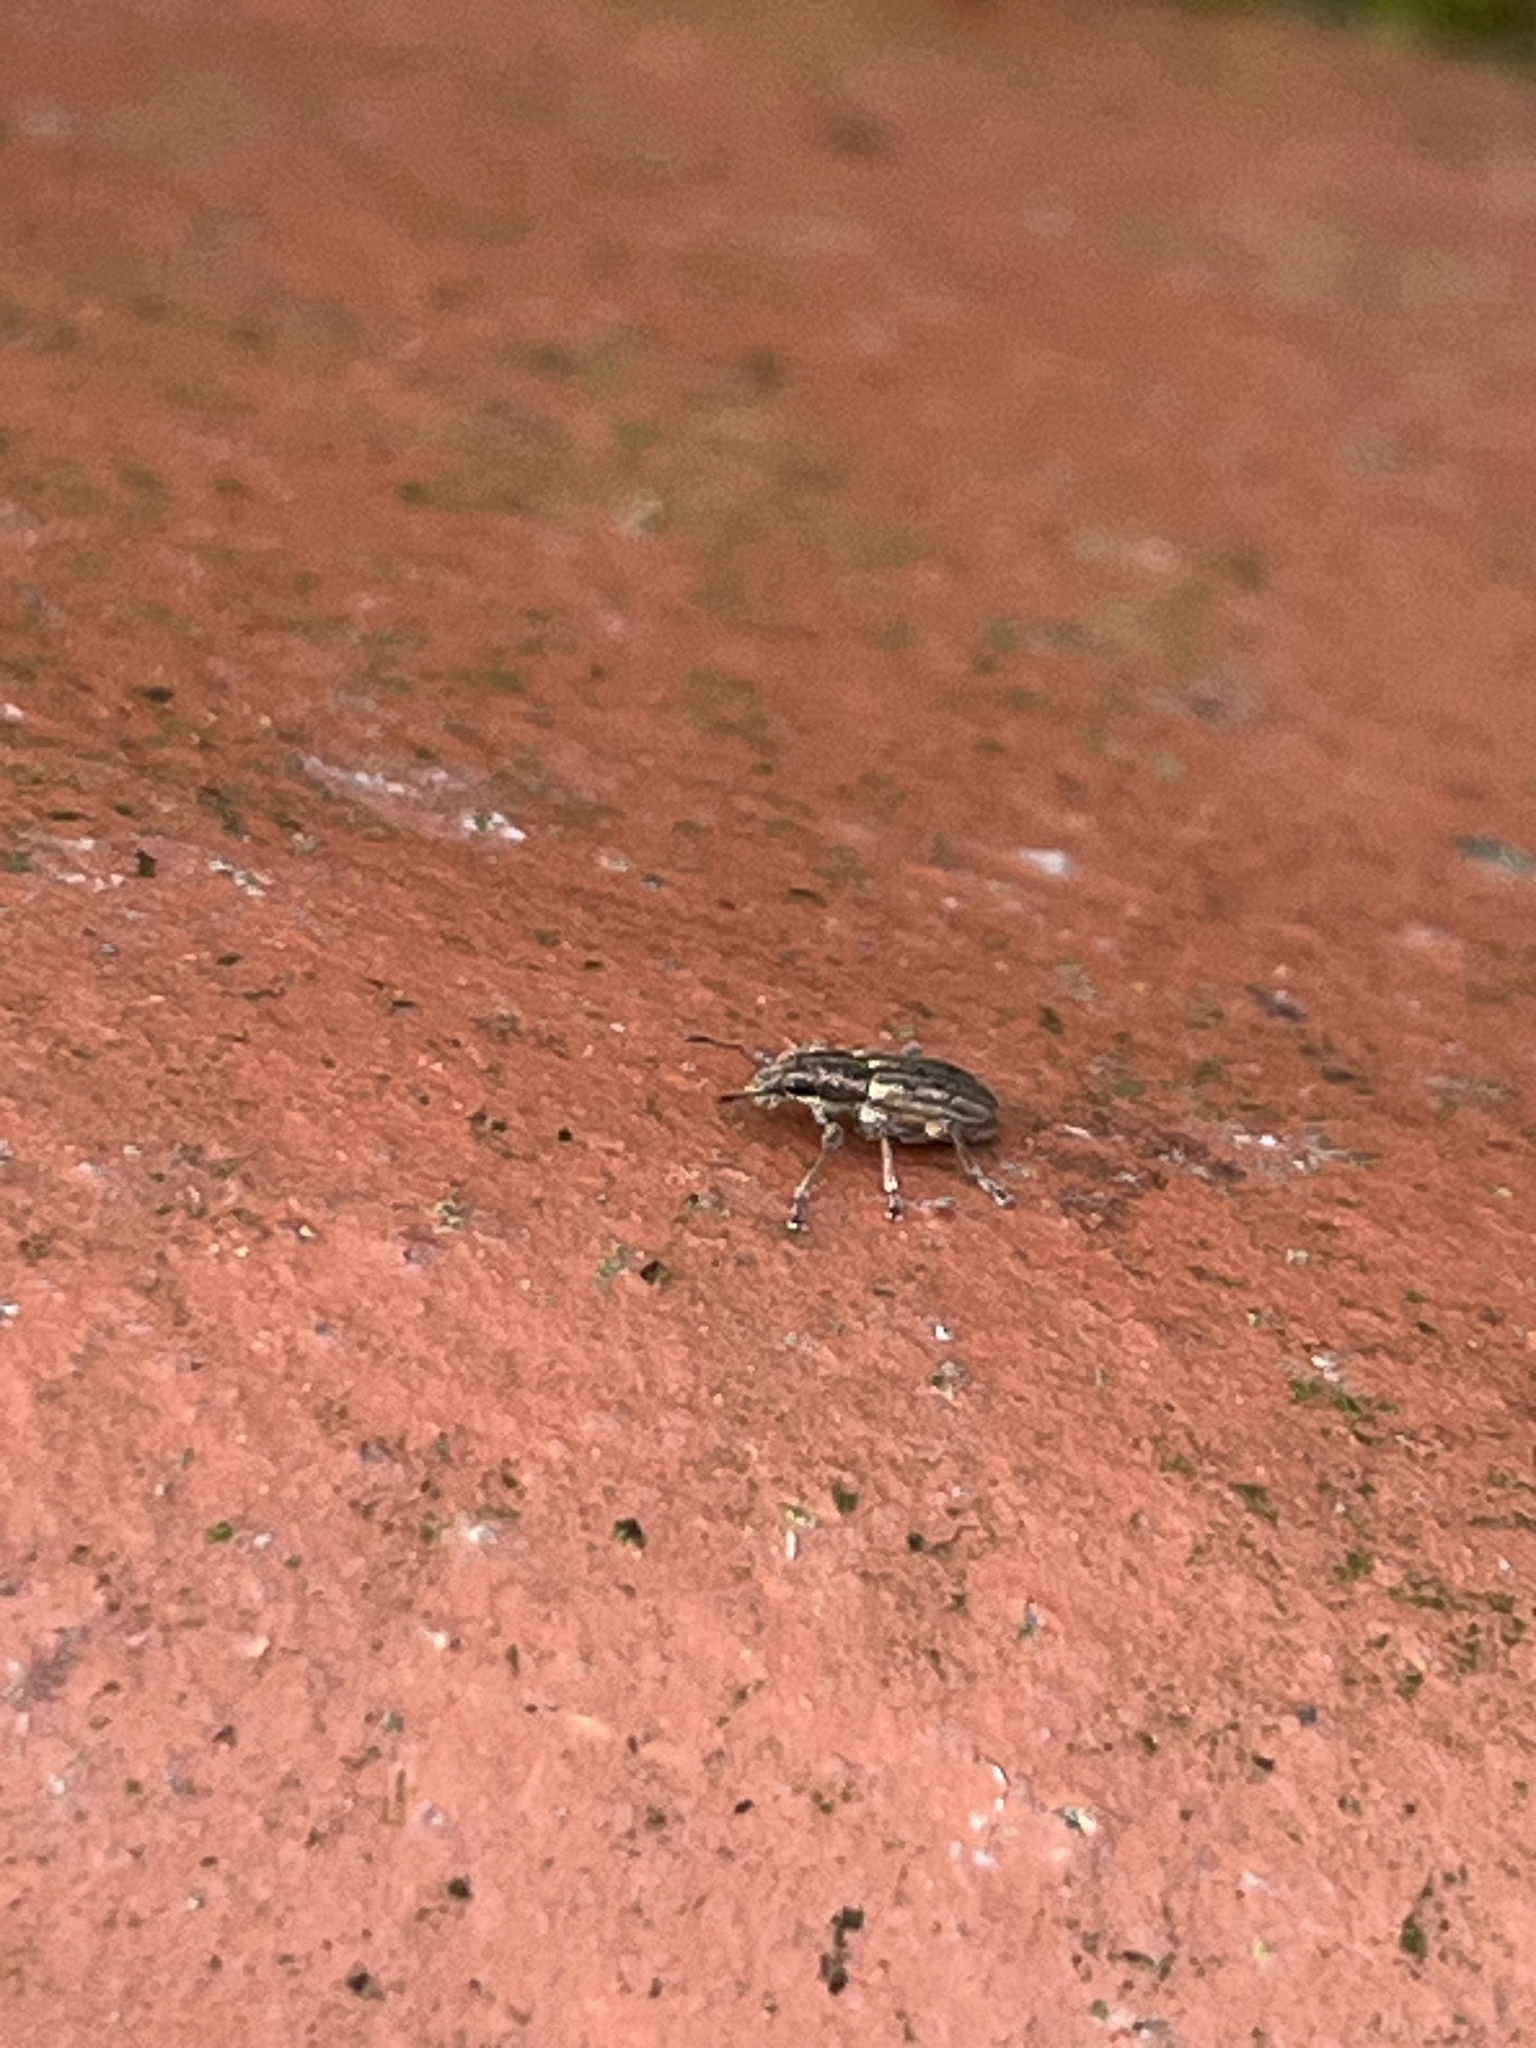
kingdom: Animalia
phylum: Arthropoda
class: Insecta
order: Coleoptera
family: Curculionidae
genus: Sitona
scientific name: Sitona lineatus
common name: Weevil
